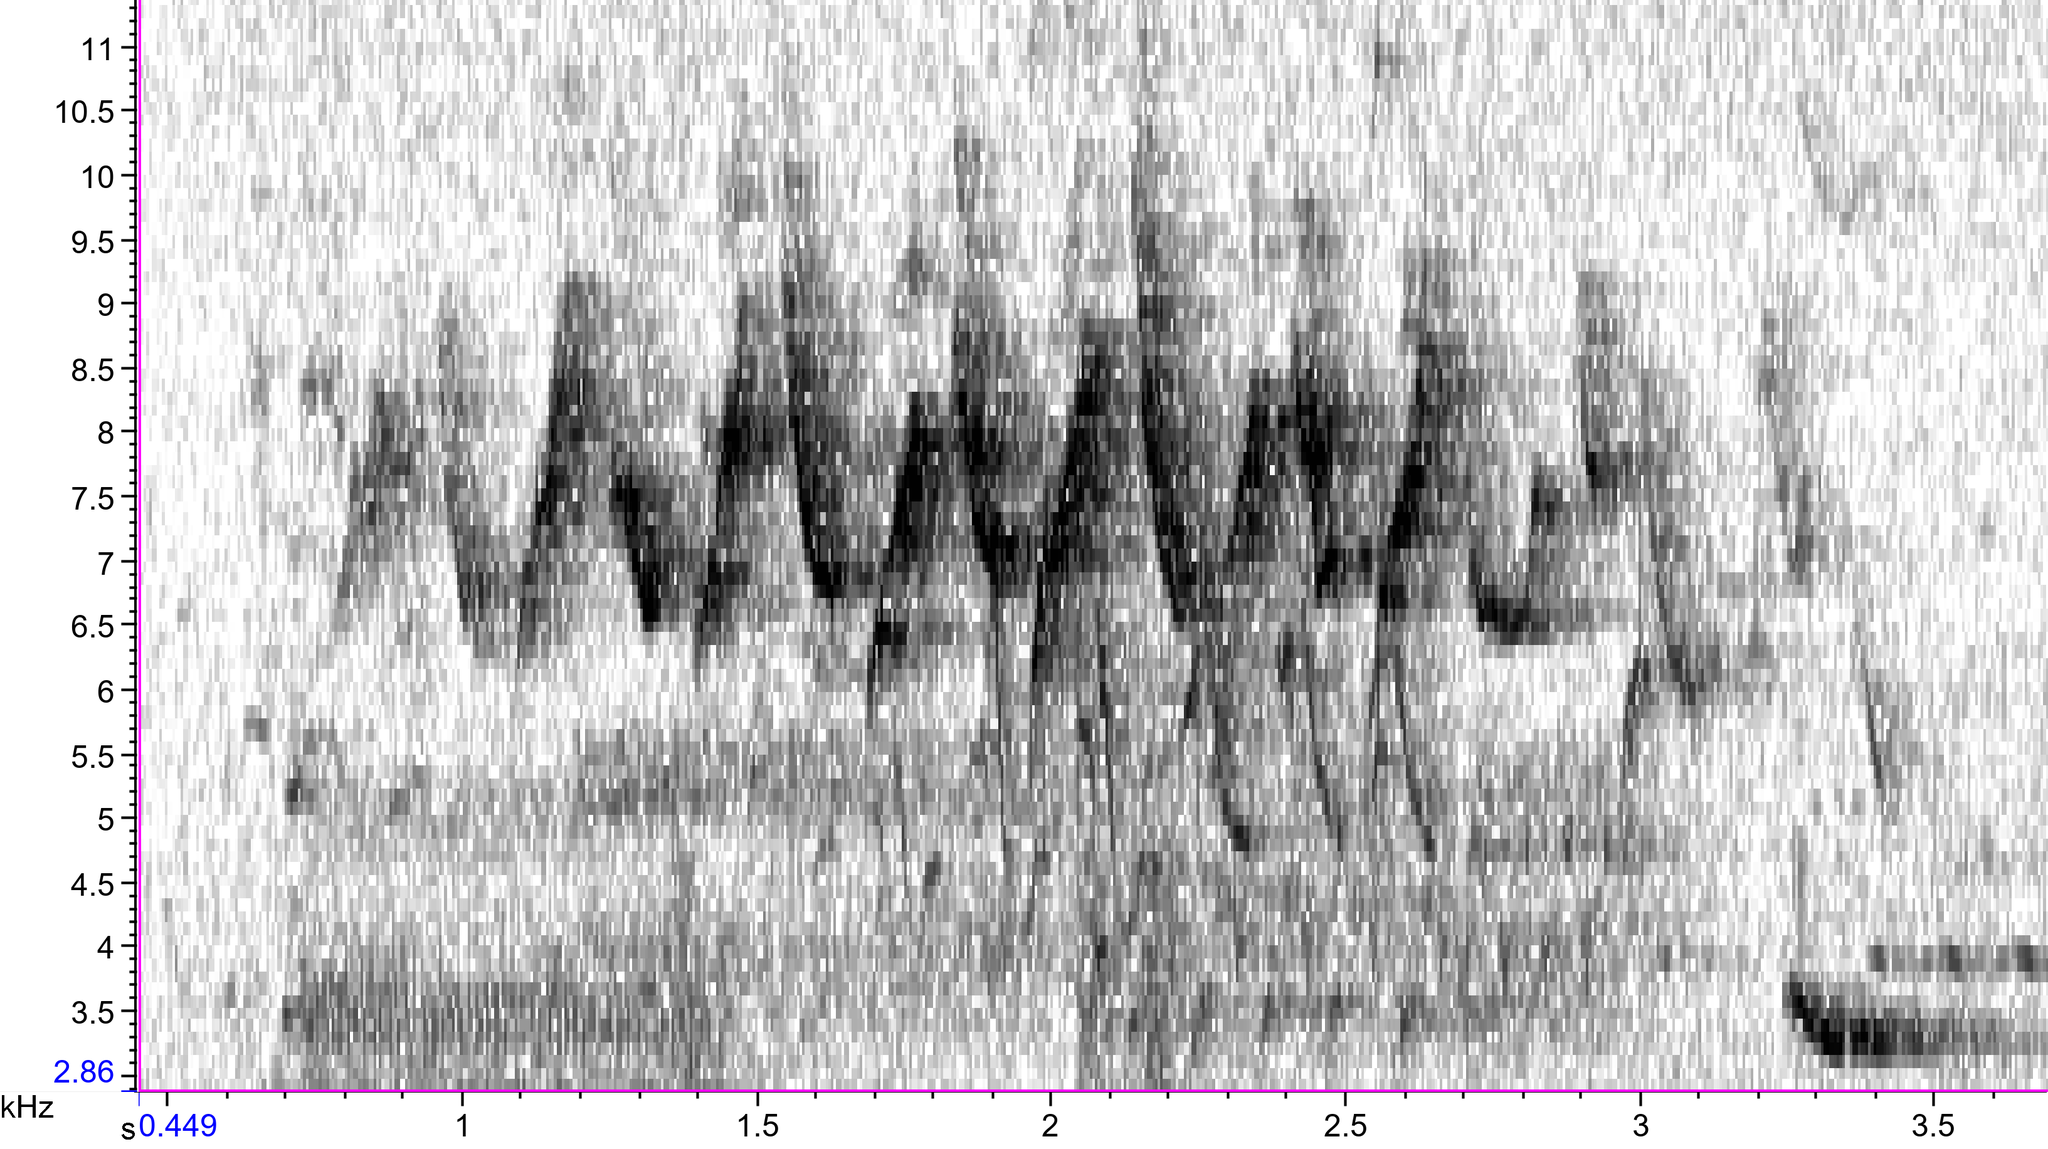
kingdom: Animalia
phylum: Chordata
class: Aves
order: Passeriformes
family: Parulidae
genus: Mniotilta
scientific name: Mniotilta varia
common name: Black-and-white warbler
